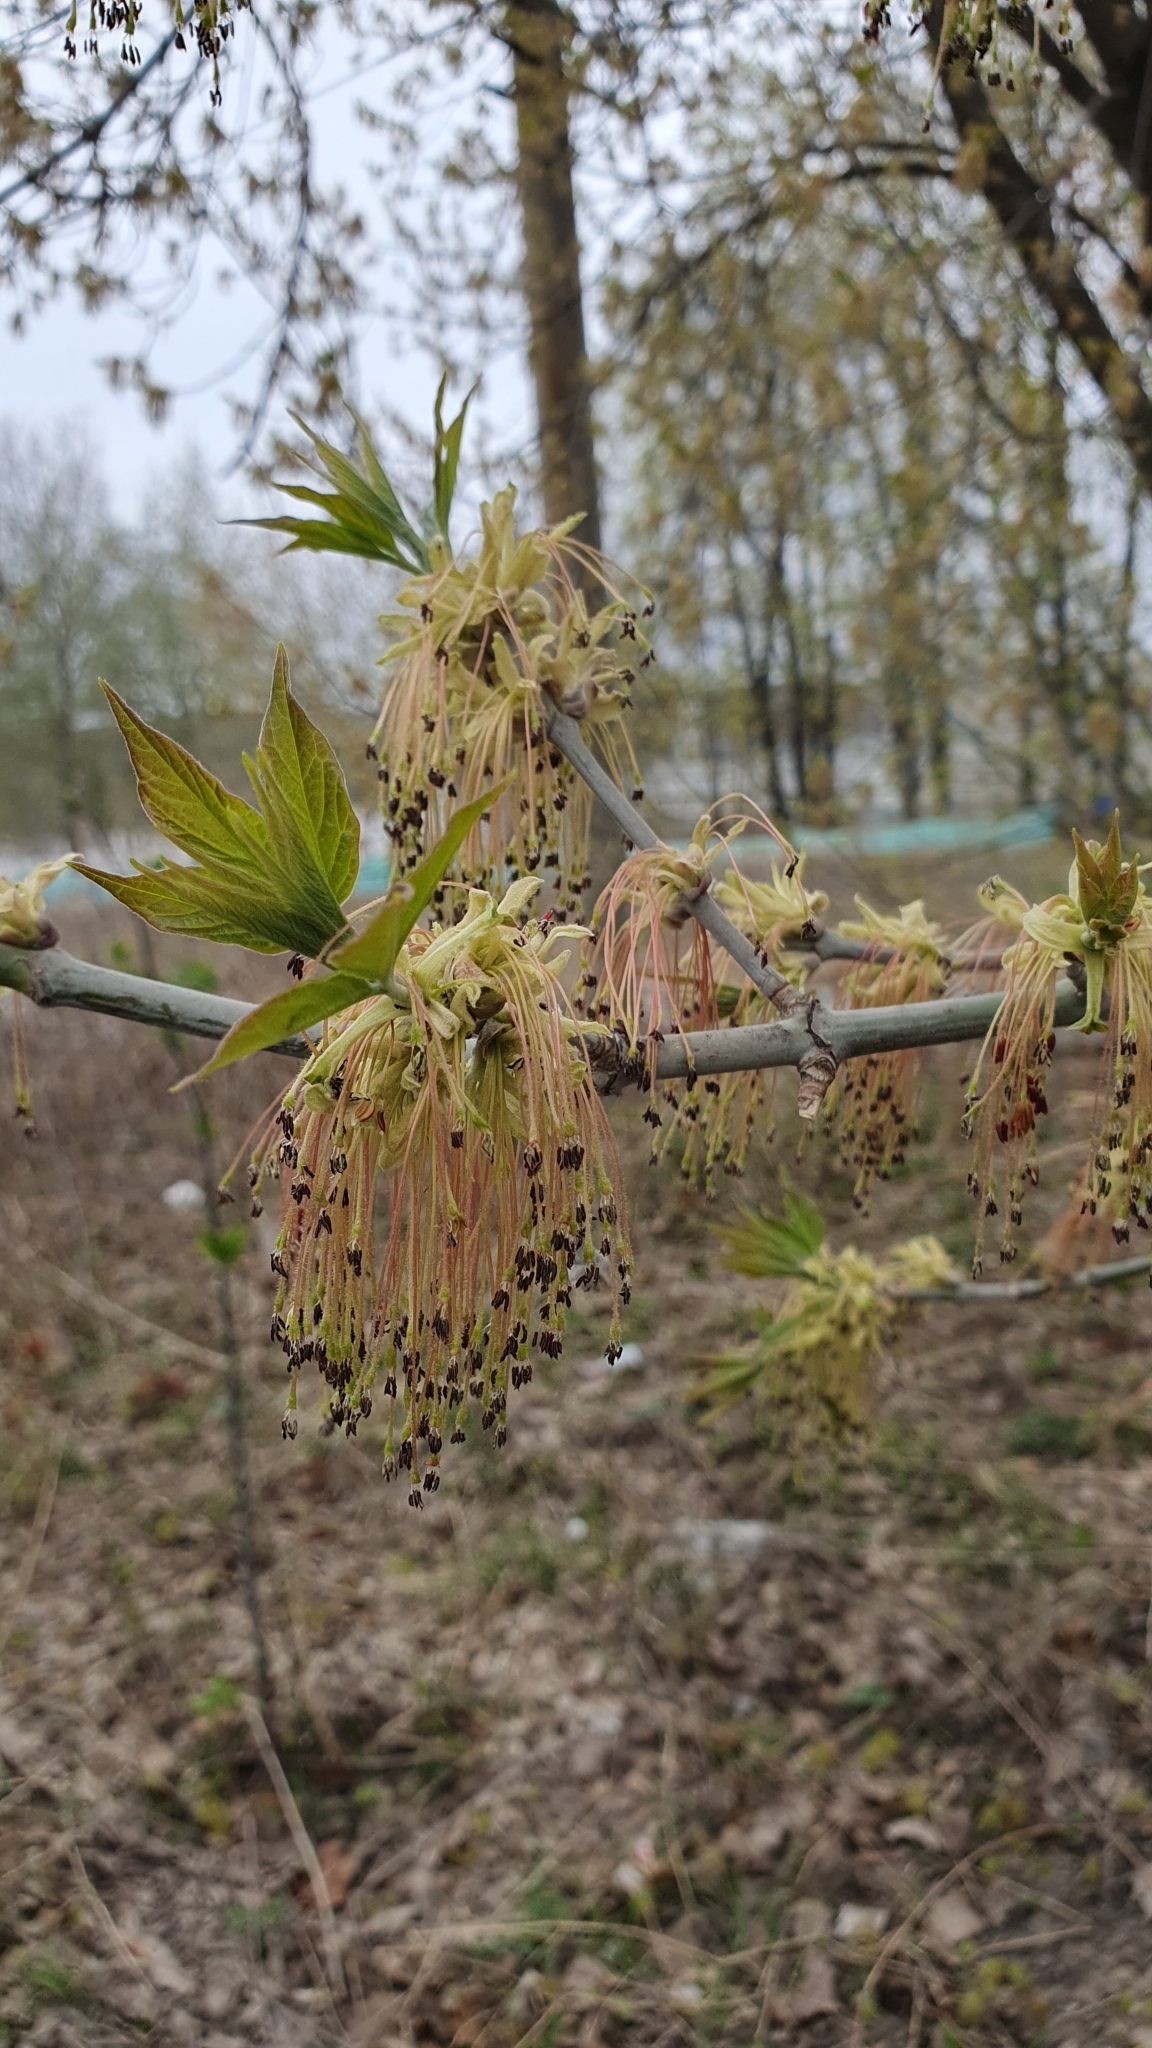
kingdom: Plantae
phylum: Tracheophyta
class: Magnoliopsida
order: Sapindales
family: Sapindaceae
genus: Acer
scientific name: Acer negundo
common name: Ashleaf maple
